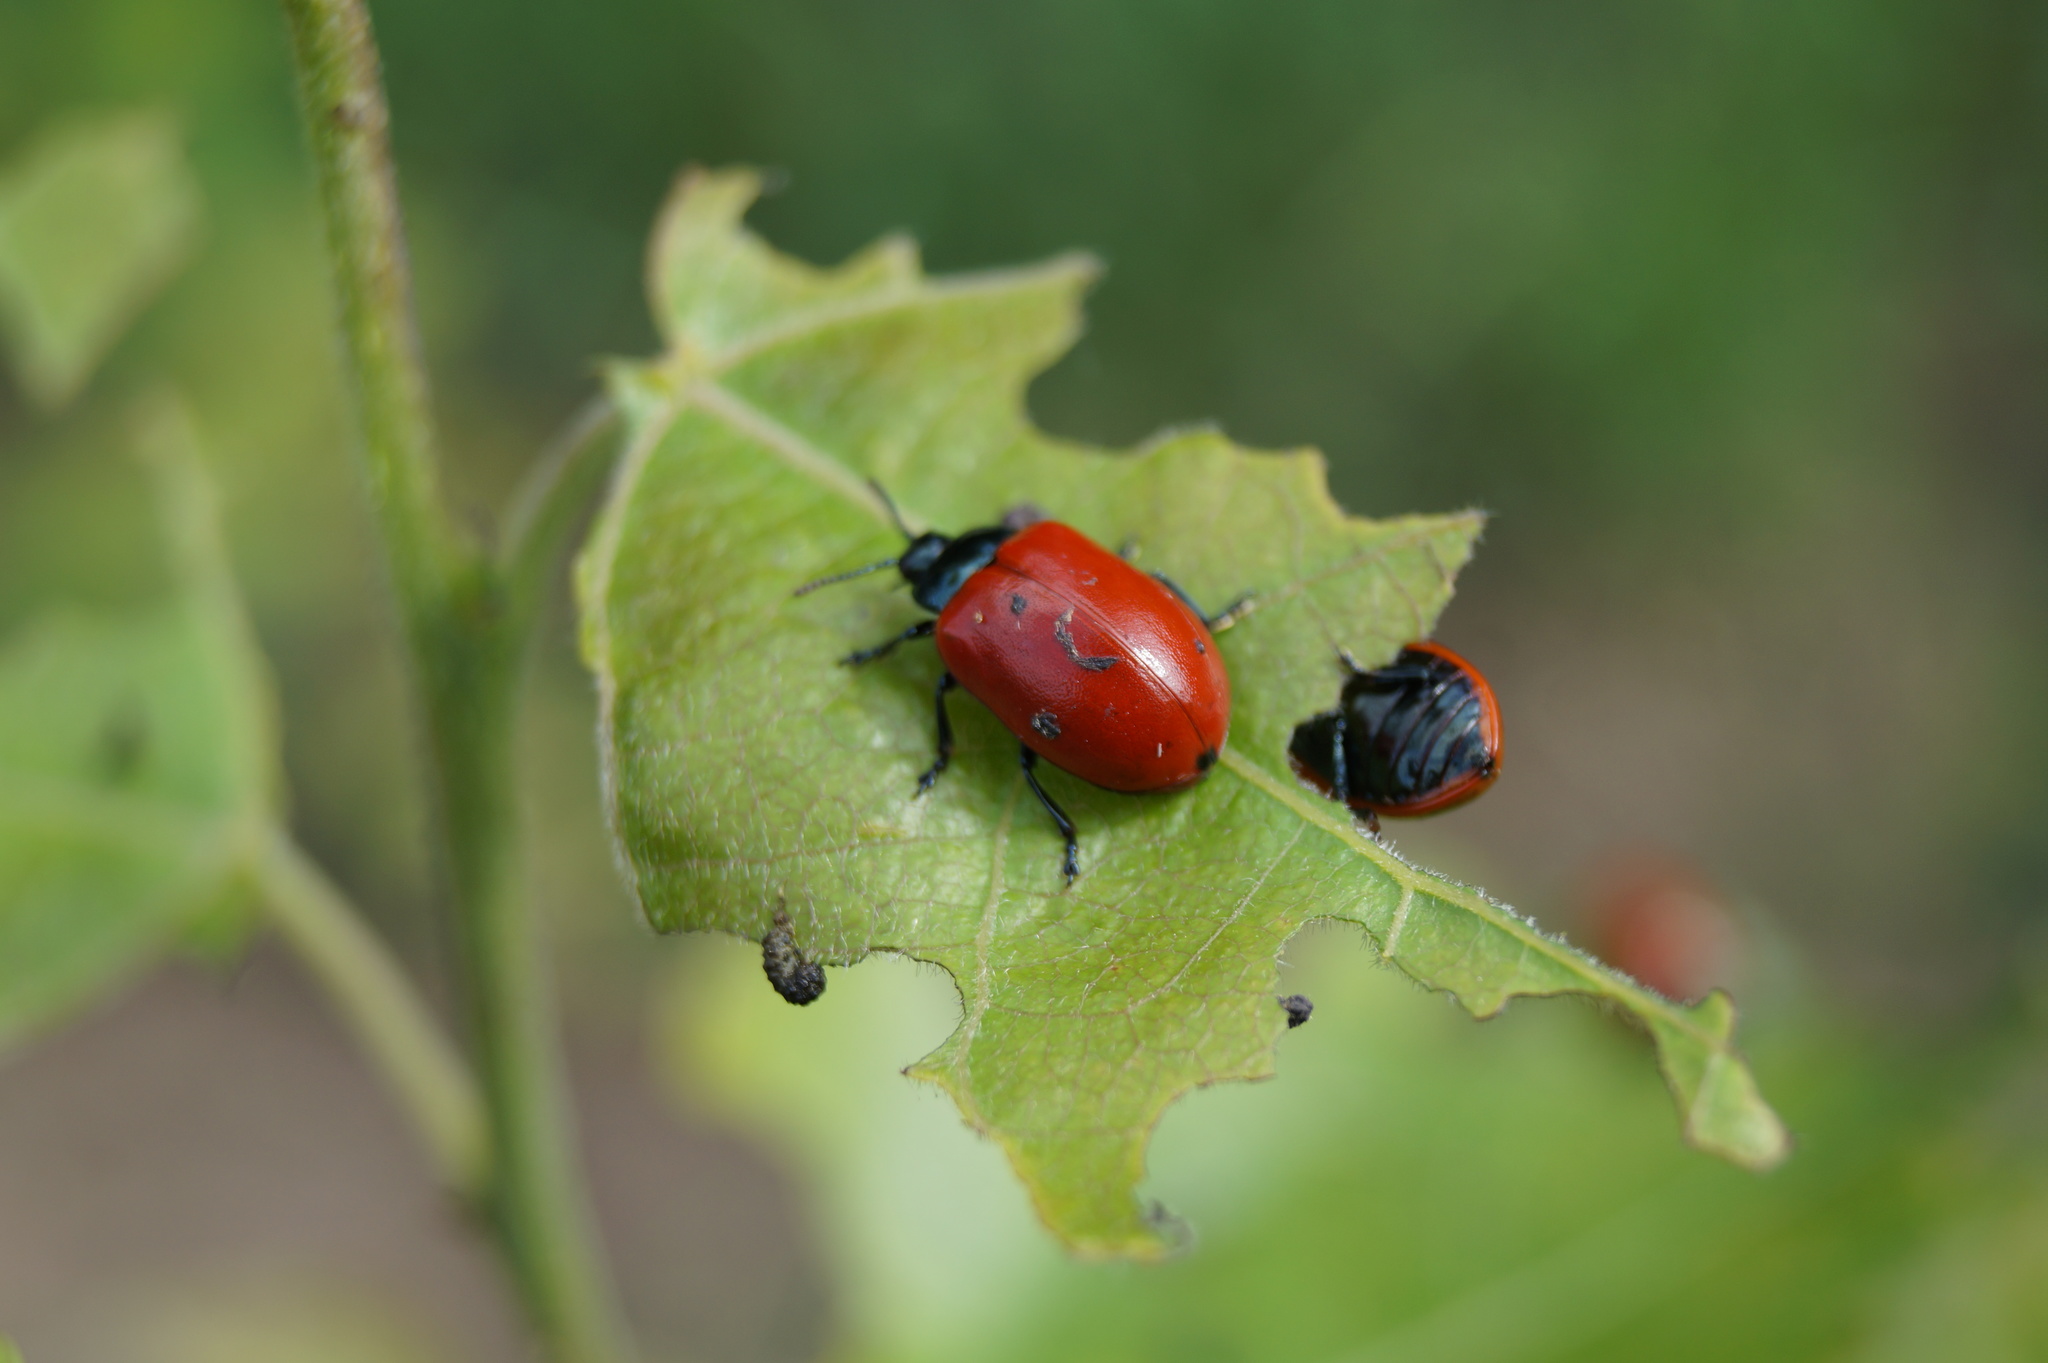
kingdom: Animalia
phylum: Arthropoda
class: Insecta
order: Coleoptera
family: Chrysomelidae
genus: Chrysomela
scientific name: Chrysomela populi
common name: Red poplar leaf beetle
